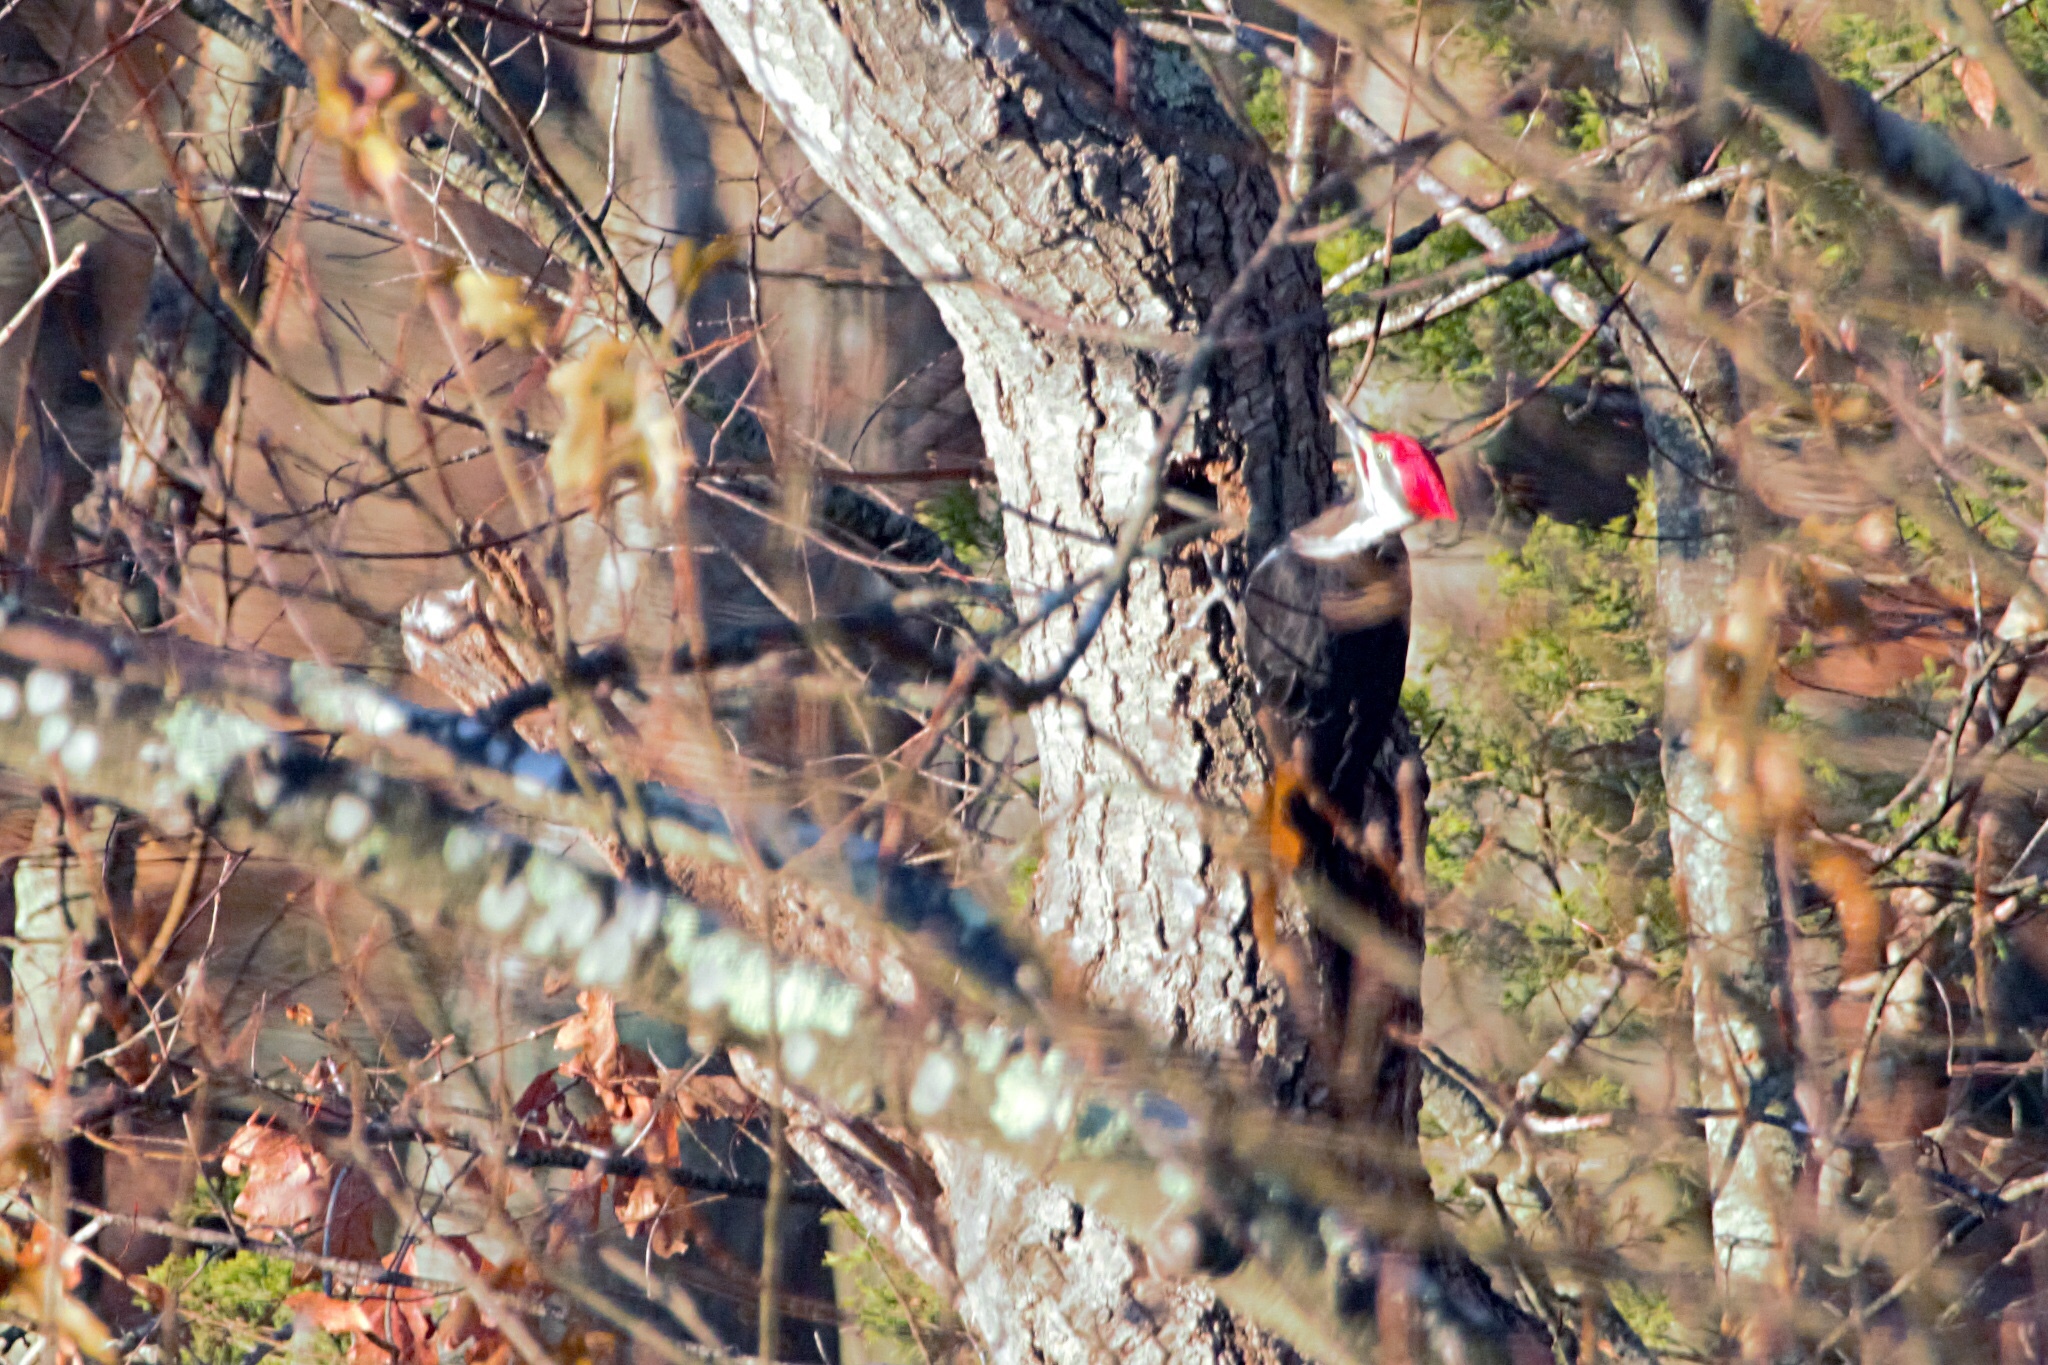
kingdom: Animalia
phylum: Chordata
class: Aves
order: Piciformes
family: Picidae
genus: Dryocopus
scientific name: Dryocopus pileatus
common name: Pileated woodpecker
